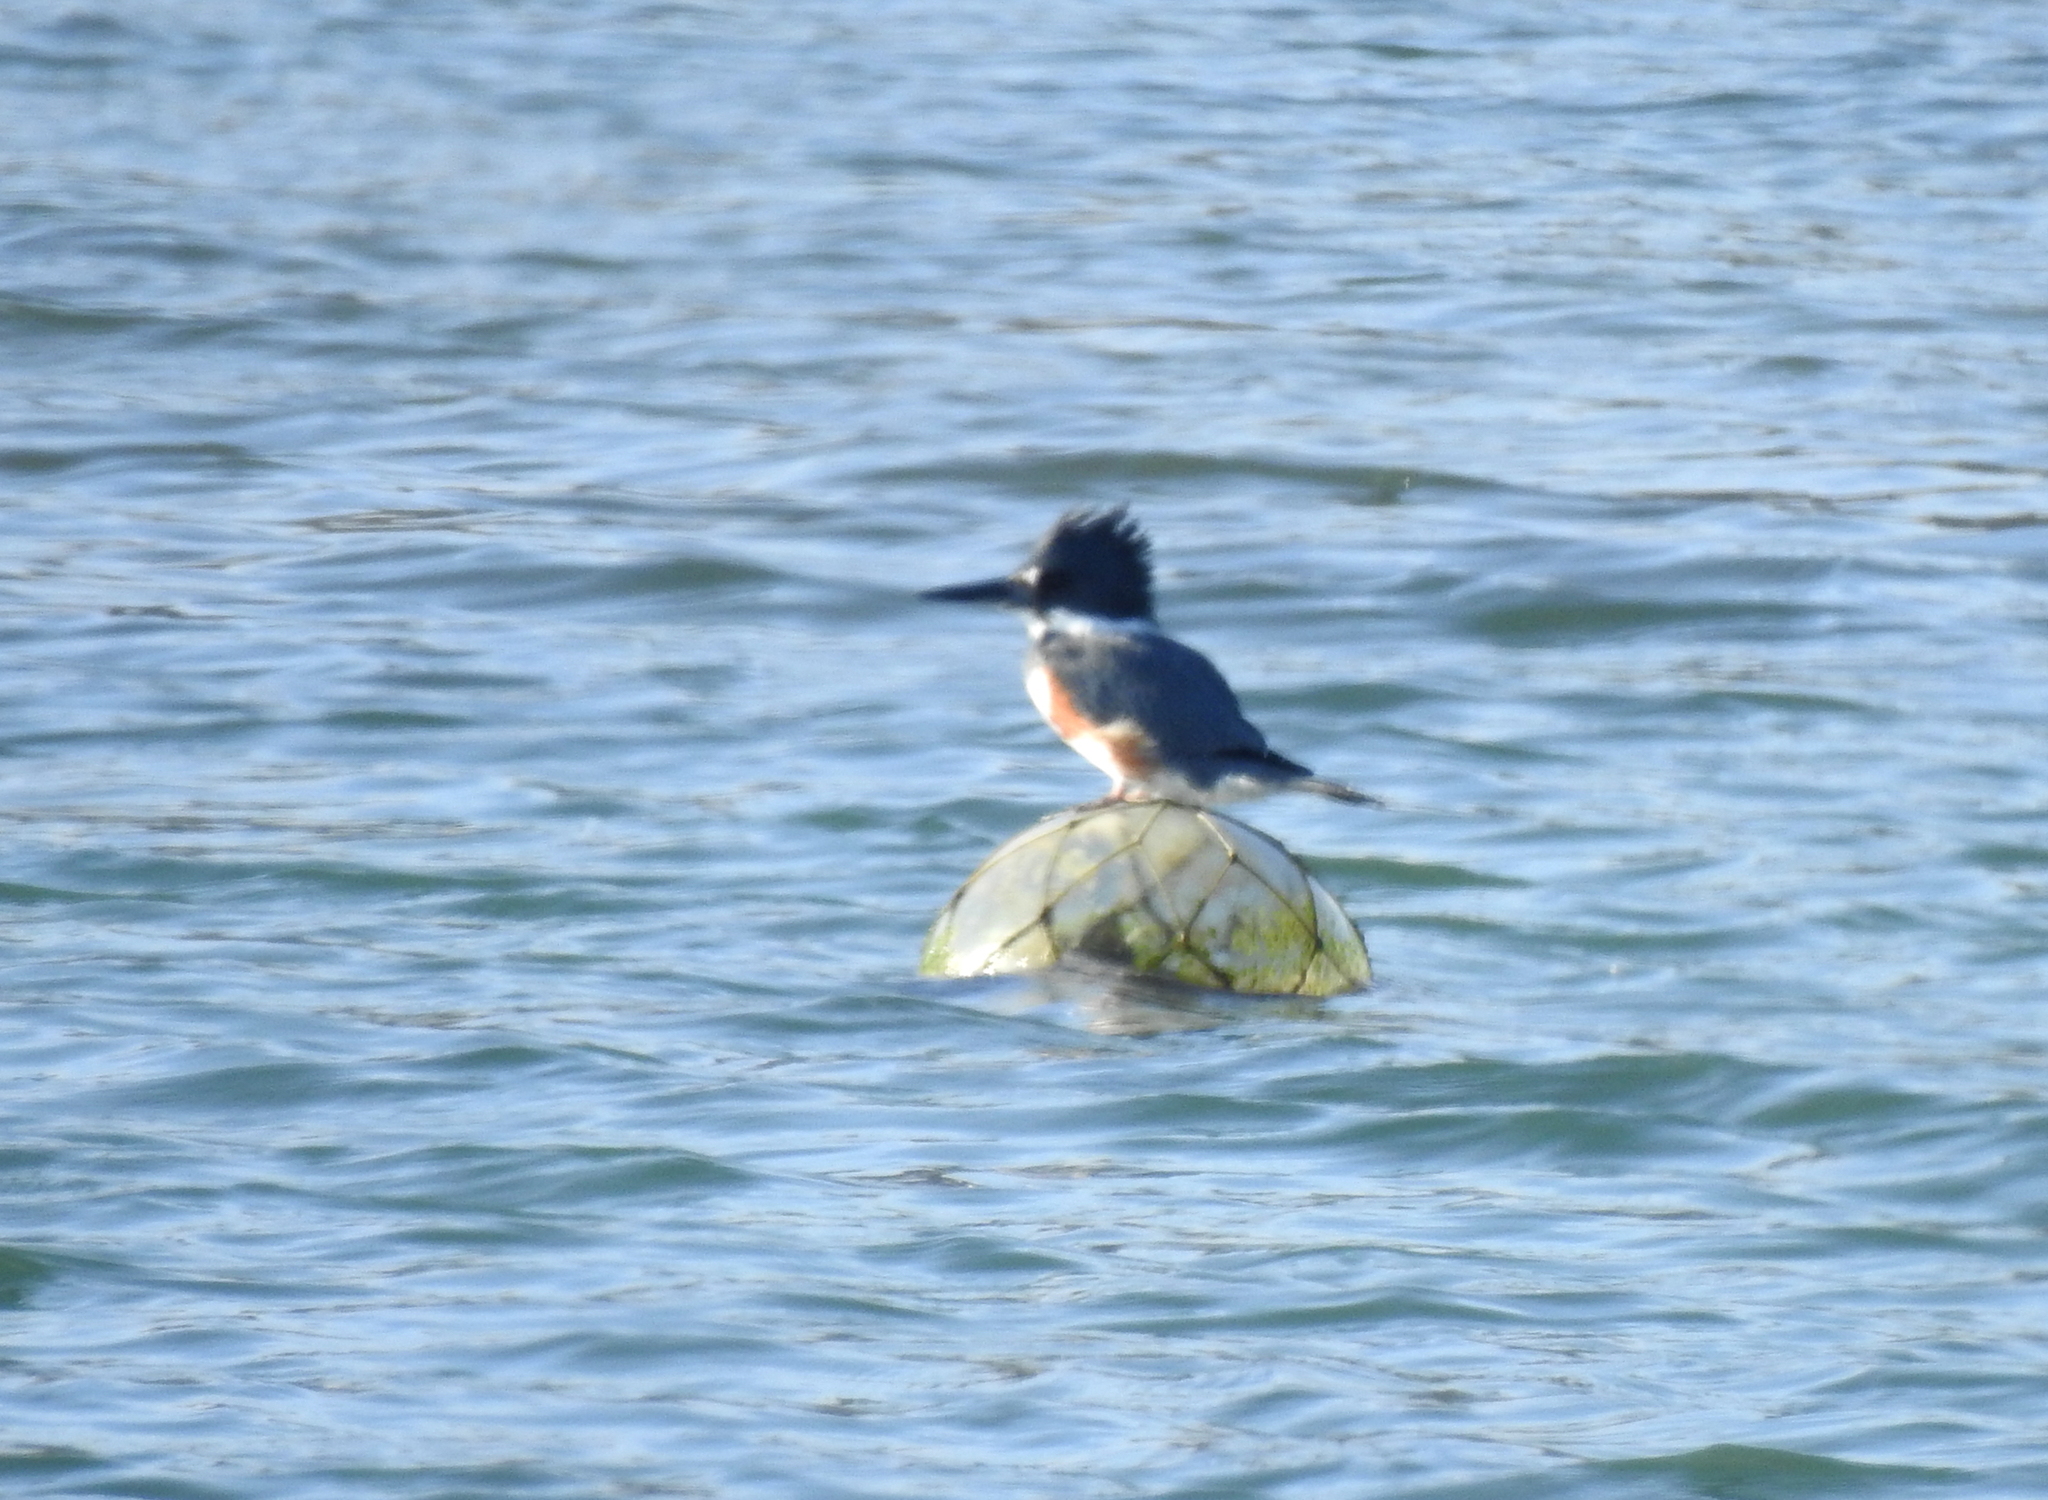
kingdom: Animalia
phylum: Chordata
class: Aves
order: Coraciiformes
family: Alcedinidae
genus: Megaceryle
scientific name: Megaceryle alcyon
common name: Belted kingfisher
